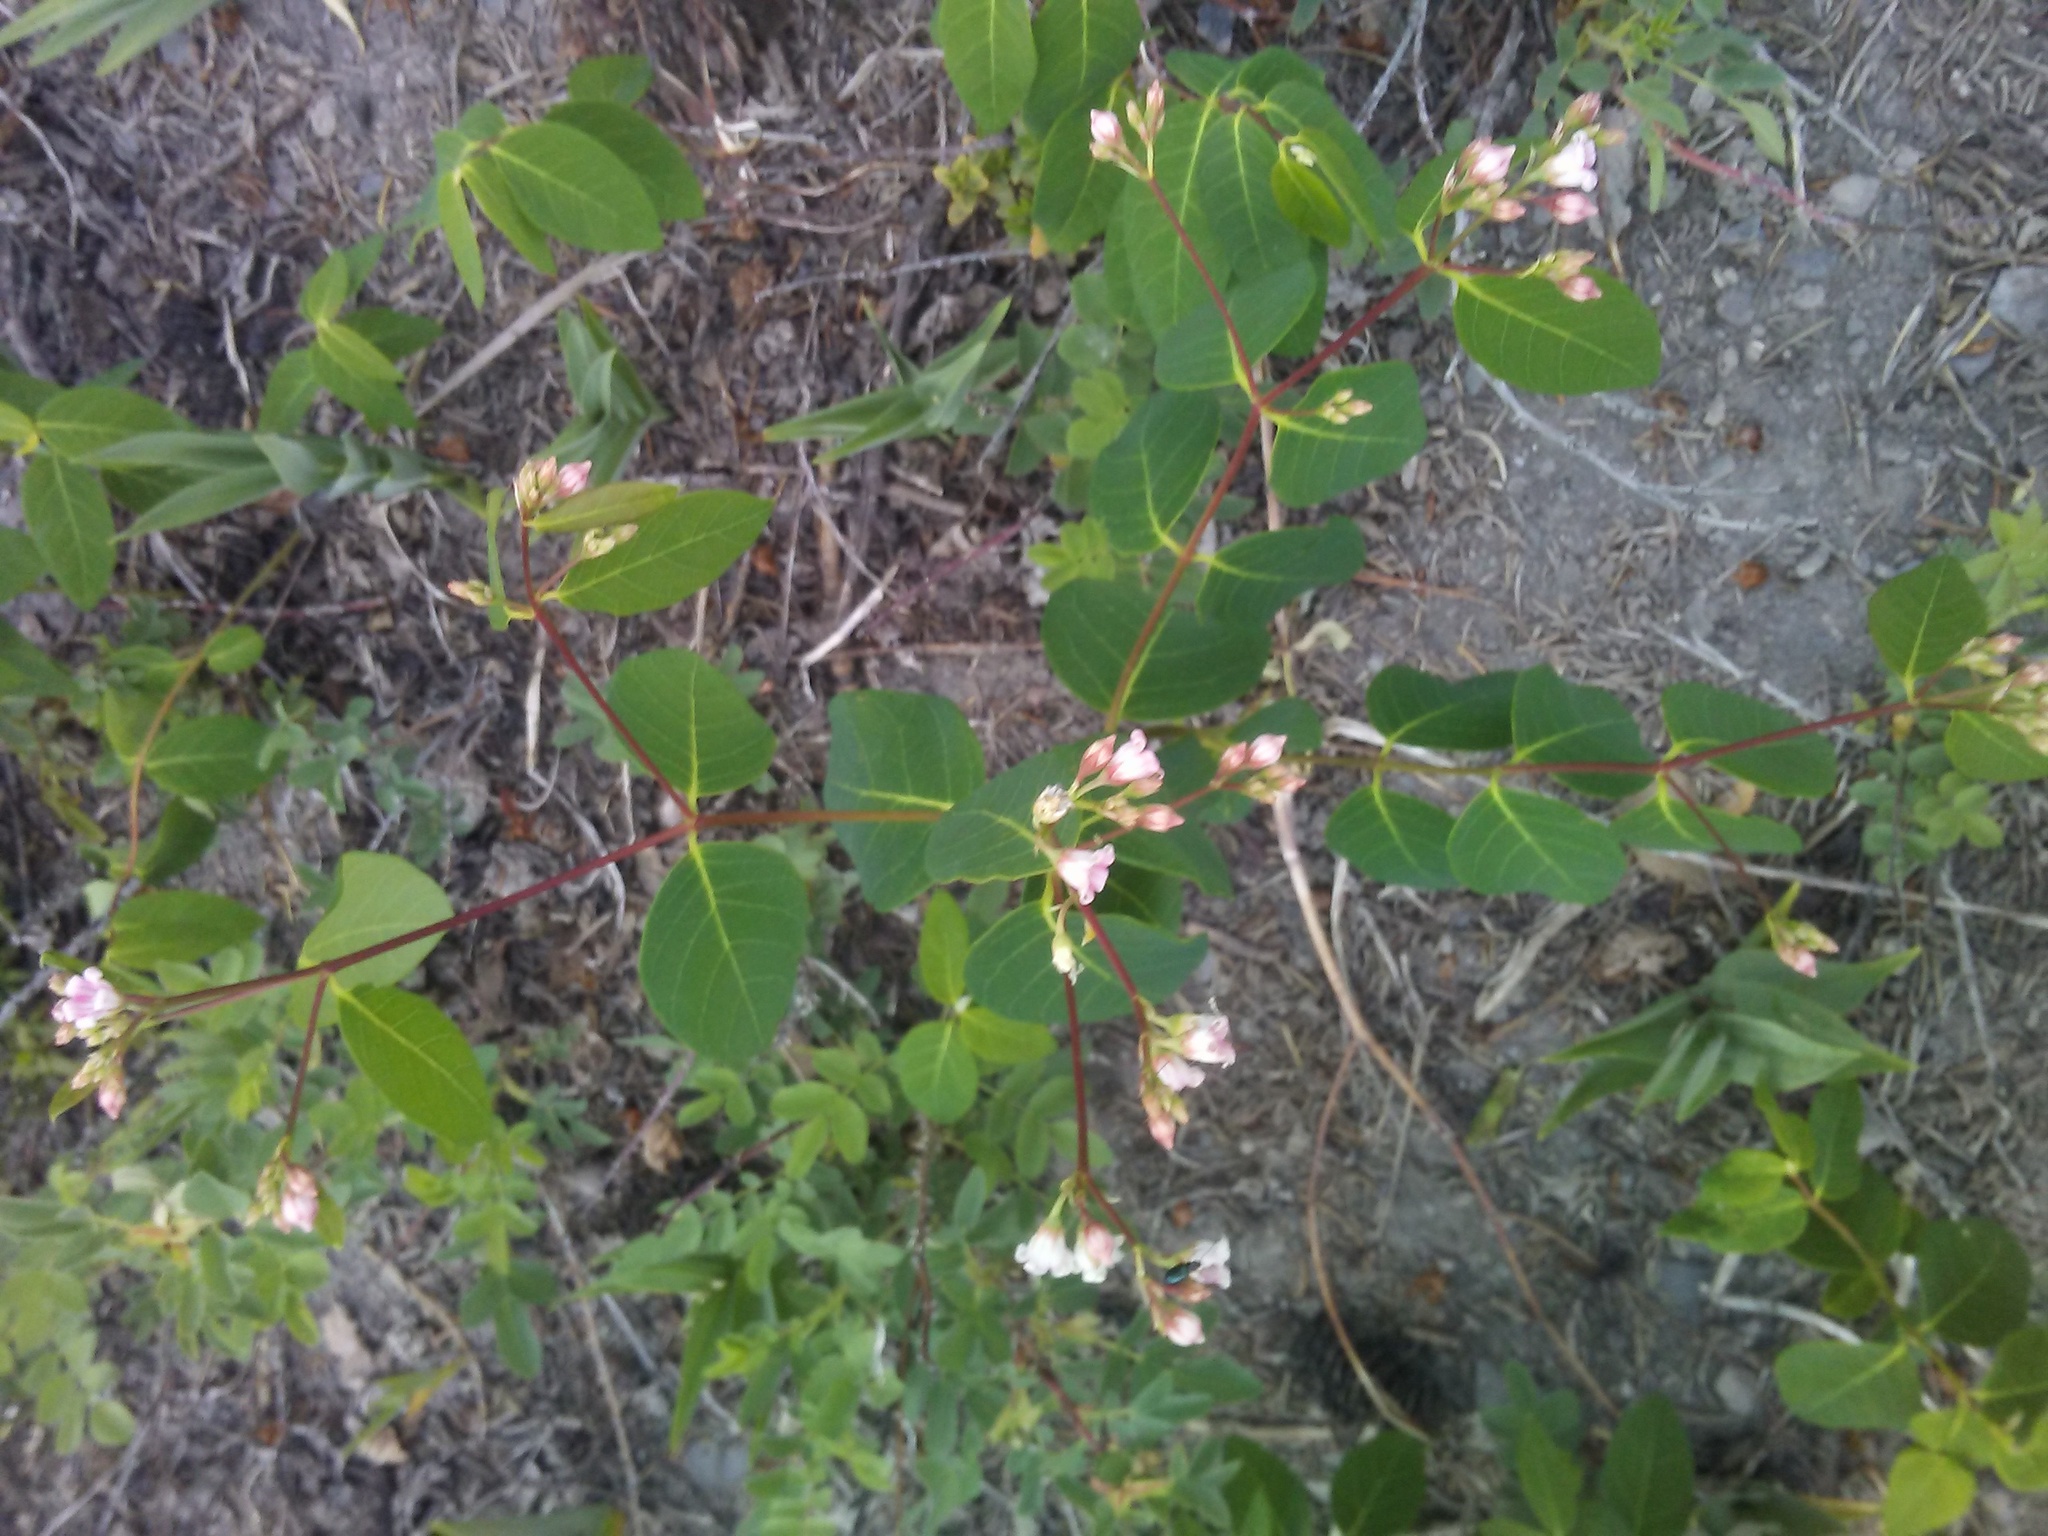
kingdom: Plantae
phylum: Tracheophyta
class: Magnoliopsida
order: Gentianales
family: Apocynaceae
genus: Apocynum
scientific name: Apocynum androsaemifolium
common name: Spreading dogbane
